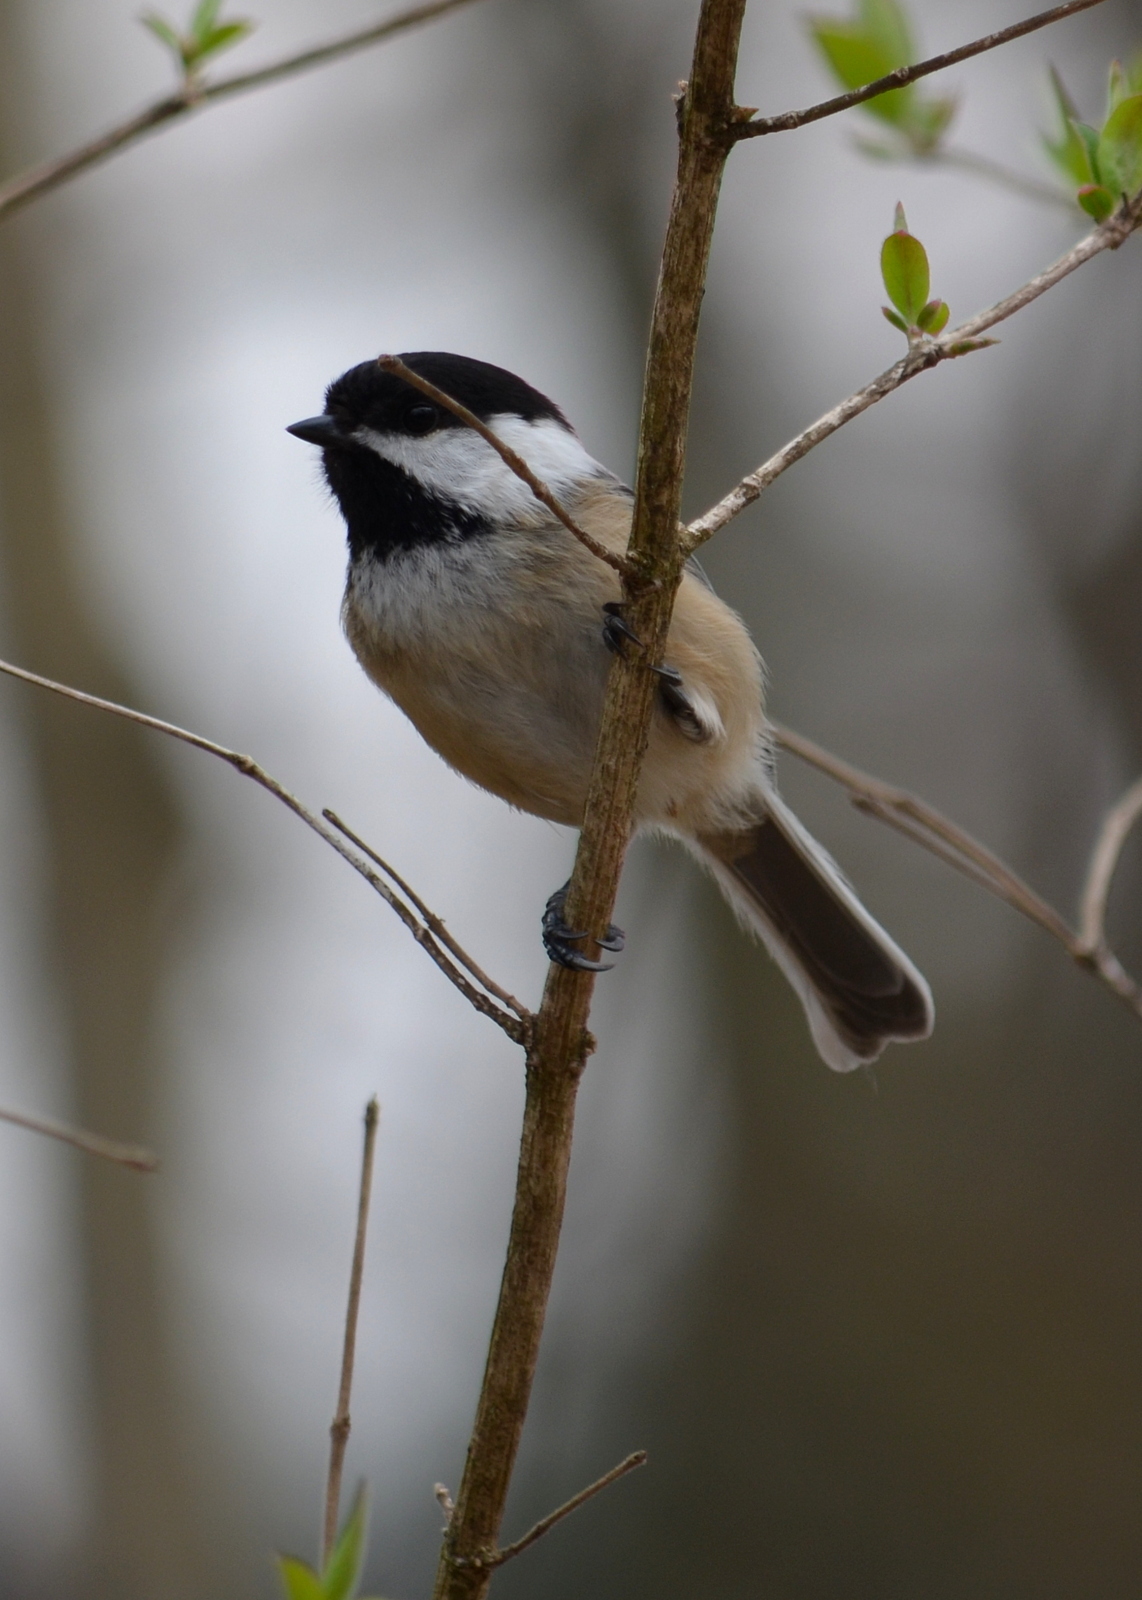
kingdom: Animalia
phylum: Chordata
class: Aves
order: Passeriformes
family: Paridae
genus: Poecile
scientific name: Poecile atricapillus
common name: Black-capped chickadee
